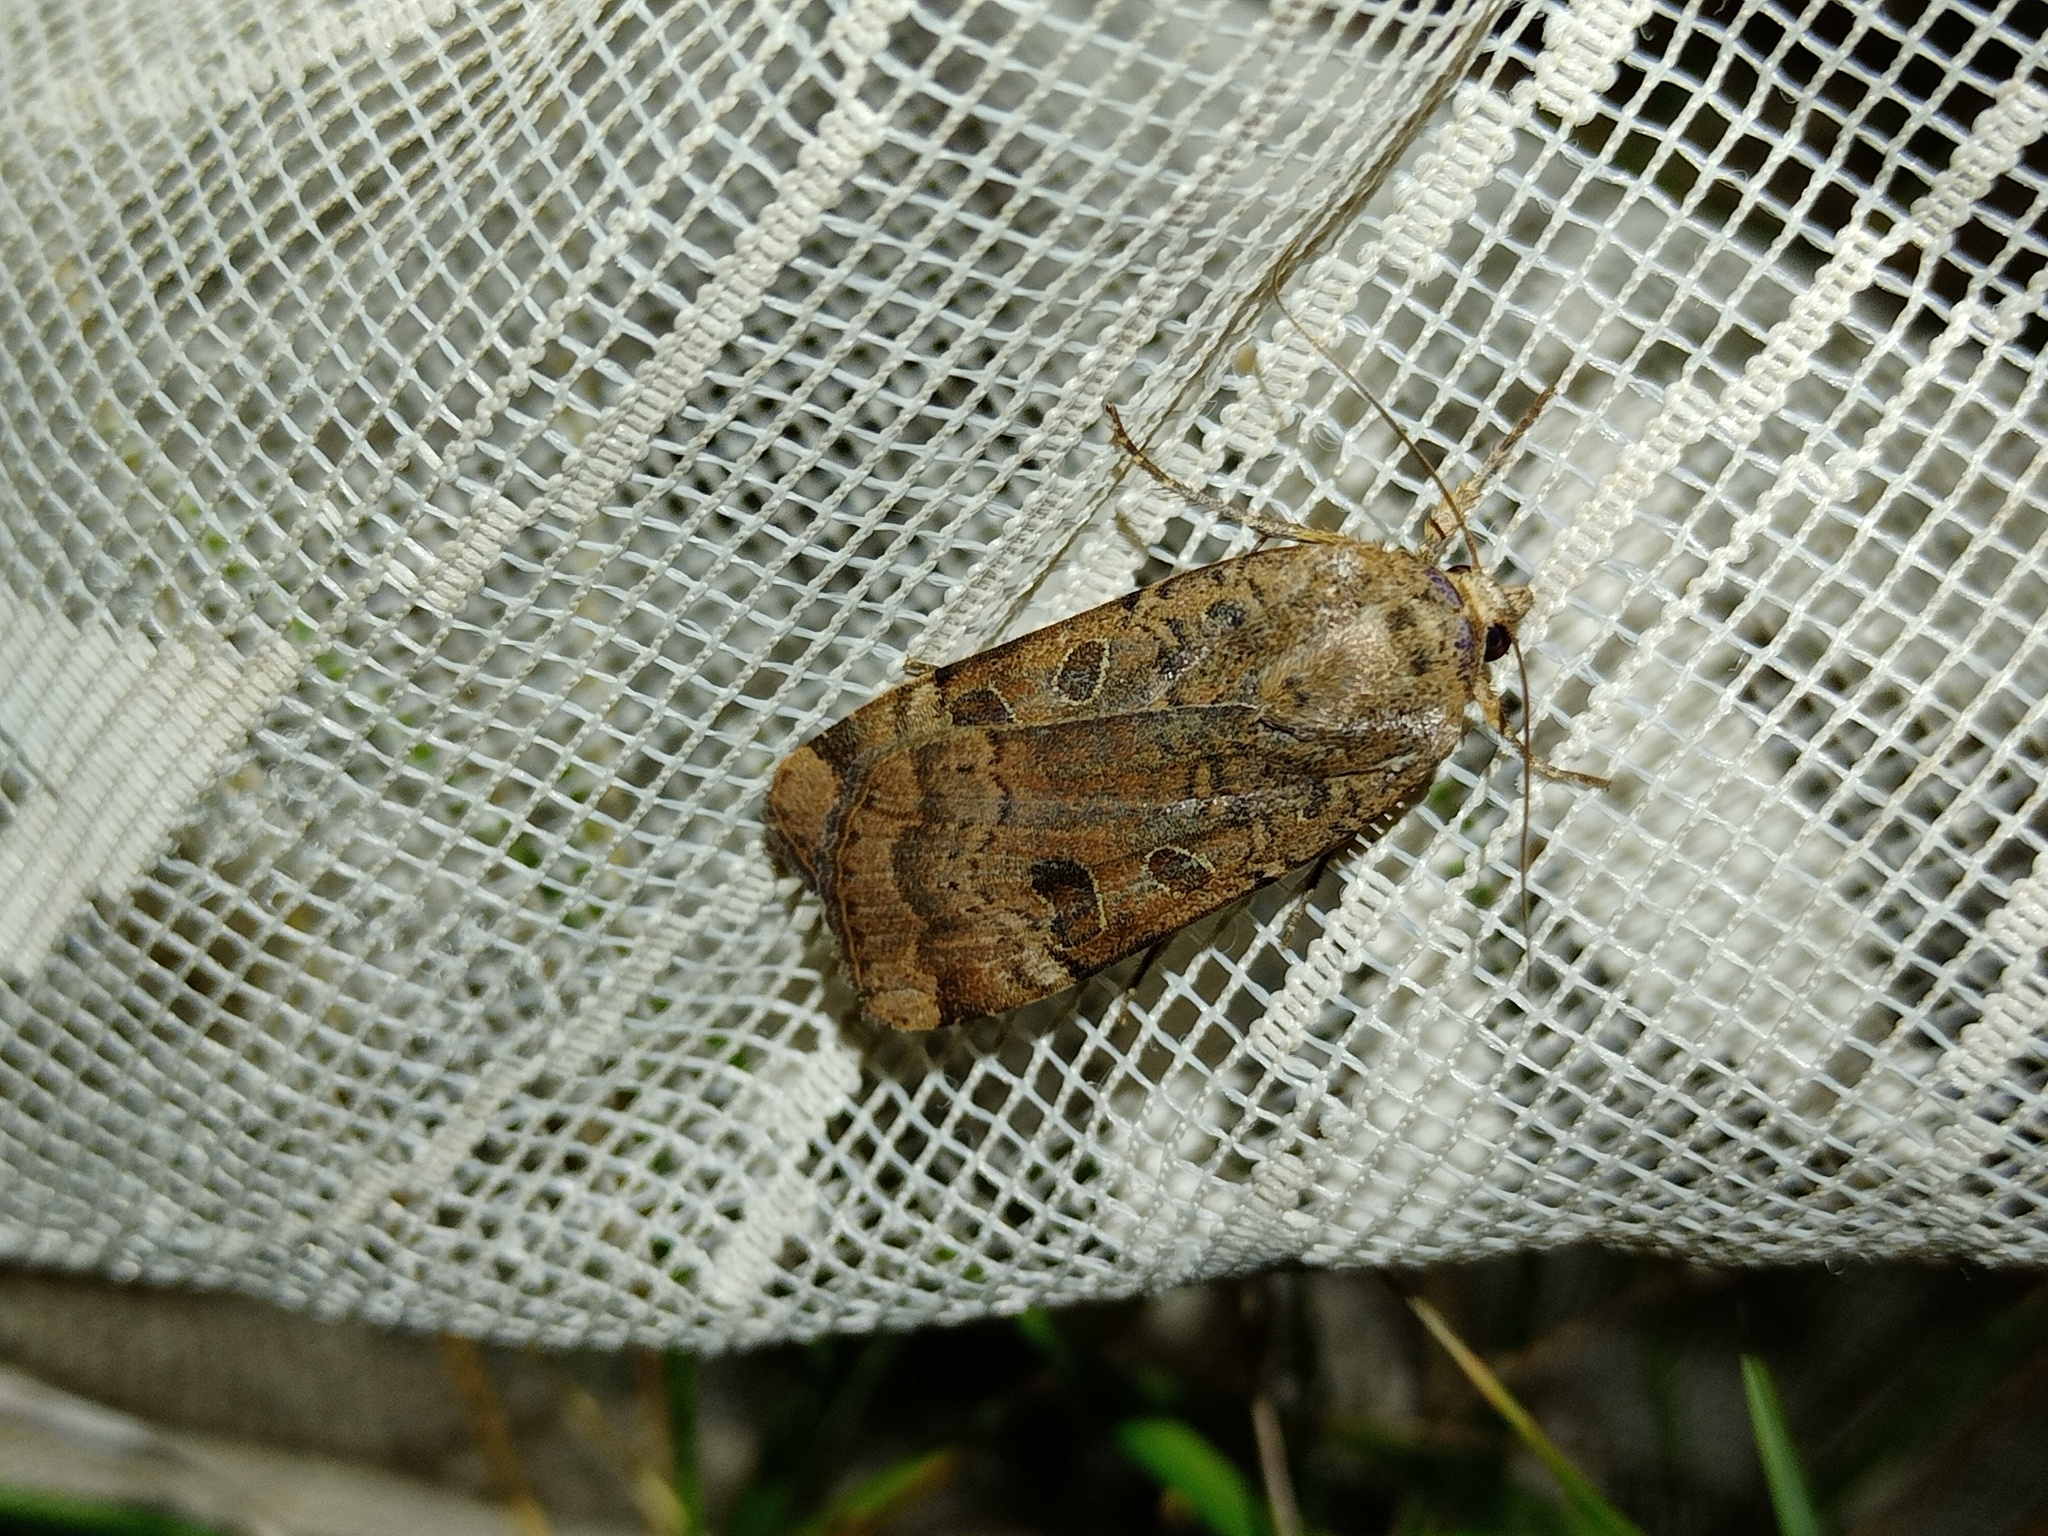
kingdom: Animalia
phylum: Arthropoda
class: Insecta
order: Lepidoptera
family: Noctuidae
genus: Noctua
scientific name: Noctua interposita
